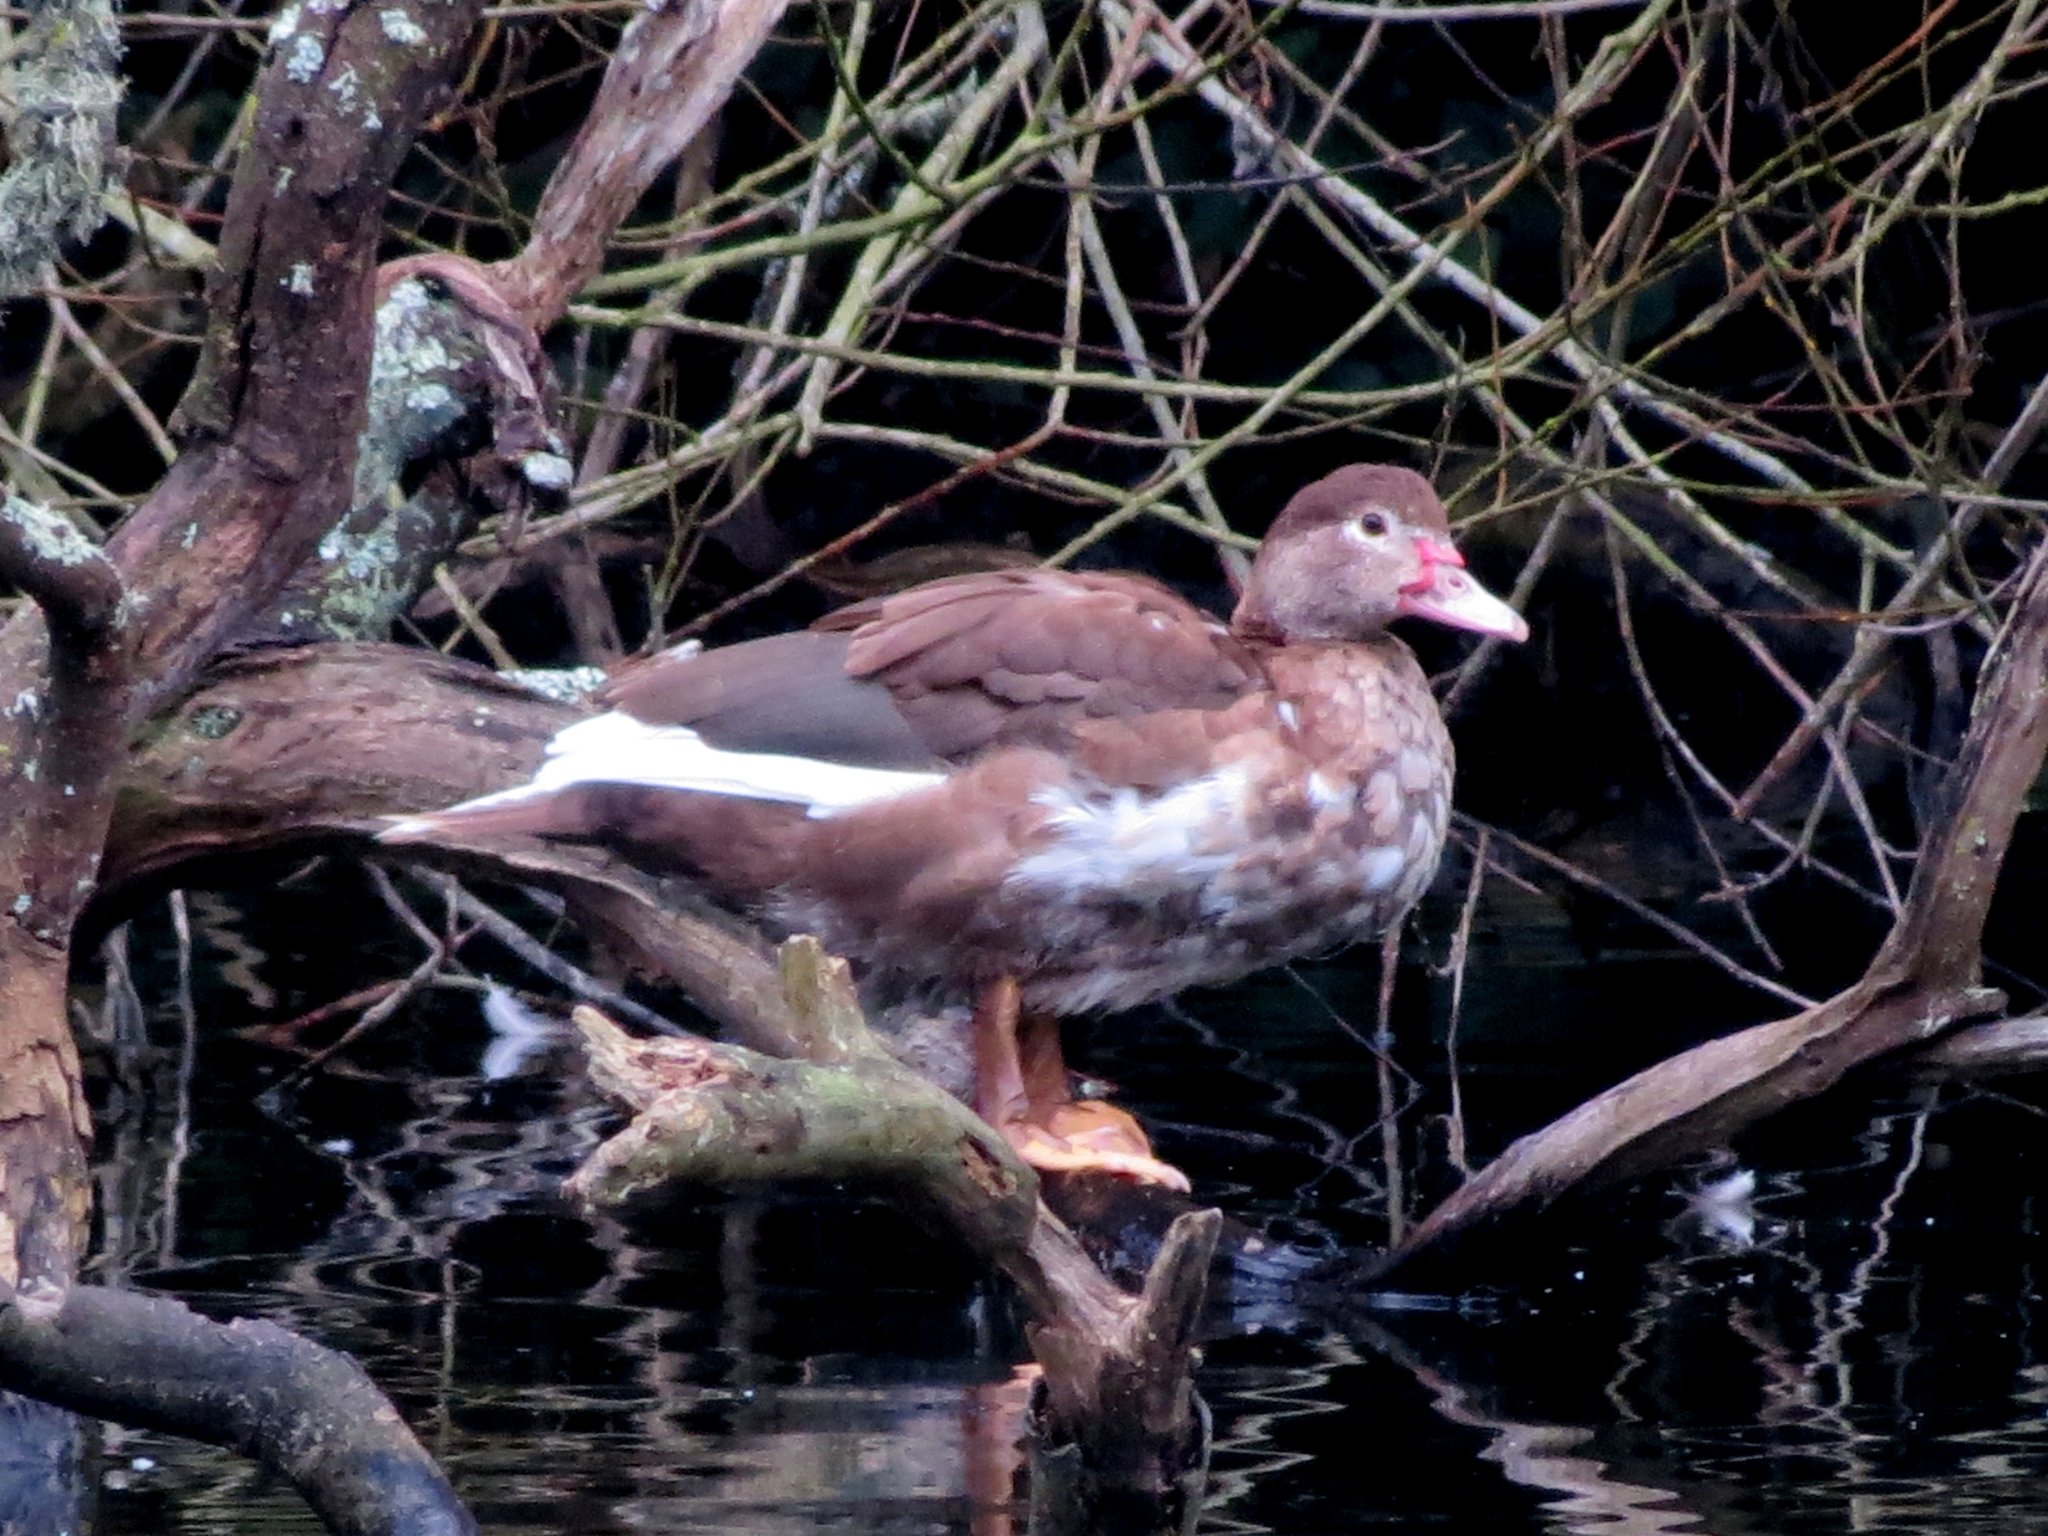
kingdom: Animalia
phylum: Chordata
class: Aves
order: Anseriformes
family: Anatidae
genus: Cairina
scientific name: Cairina moschata
